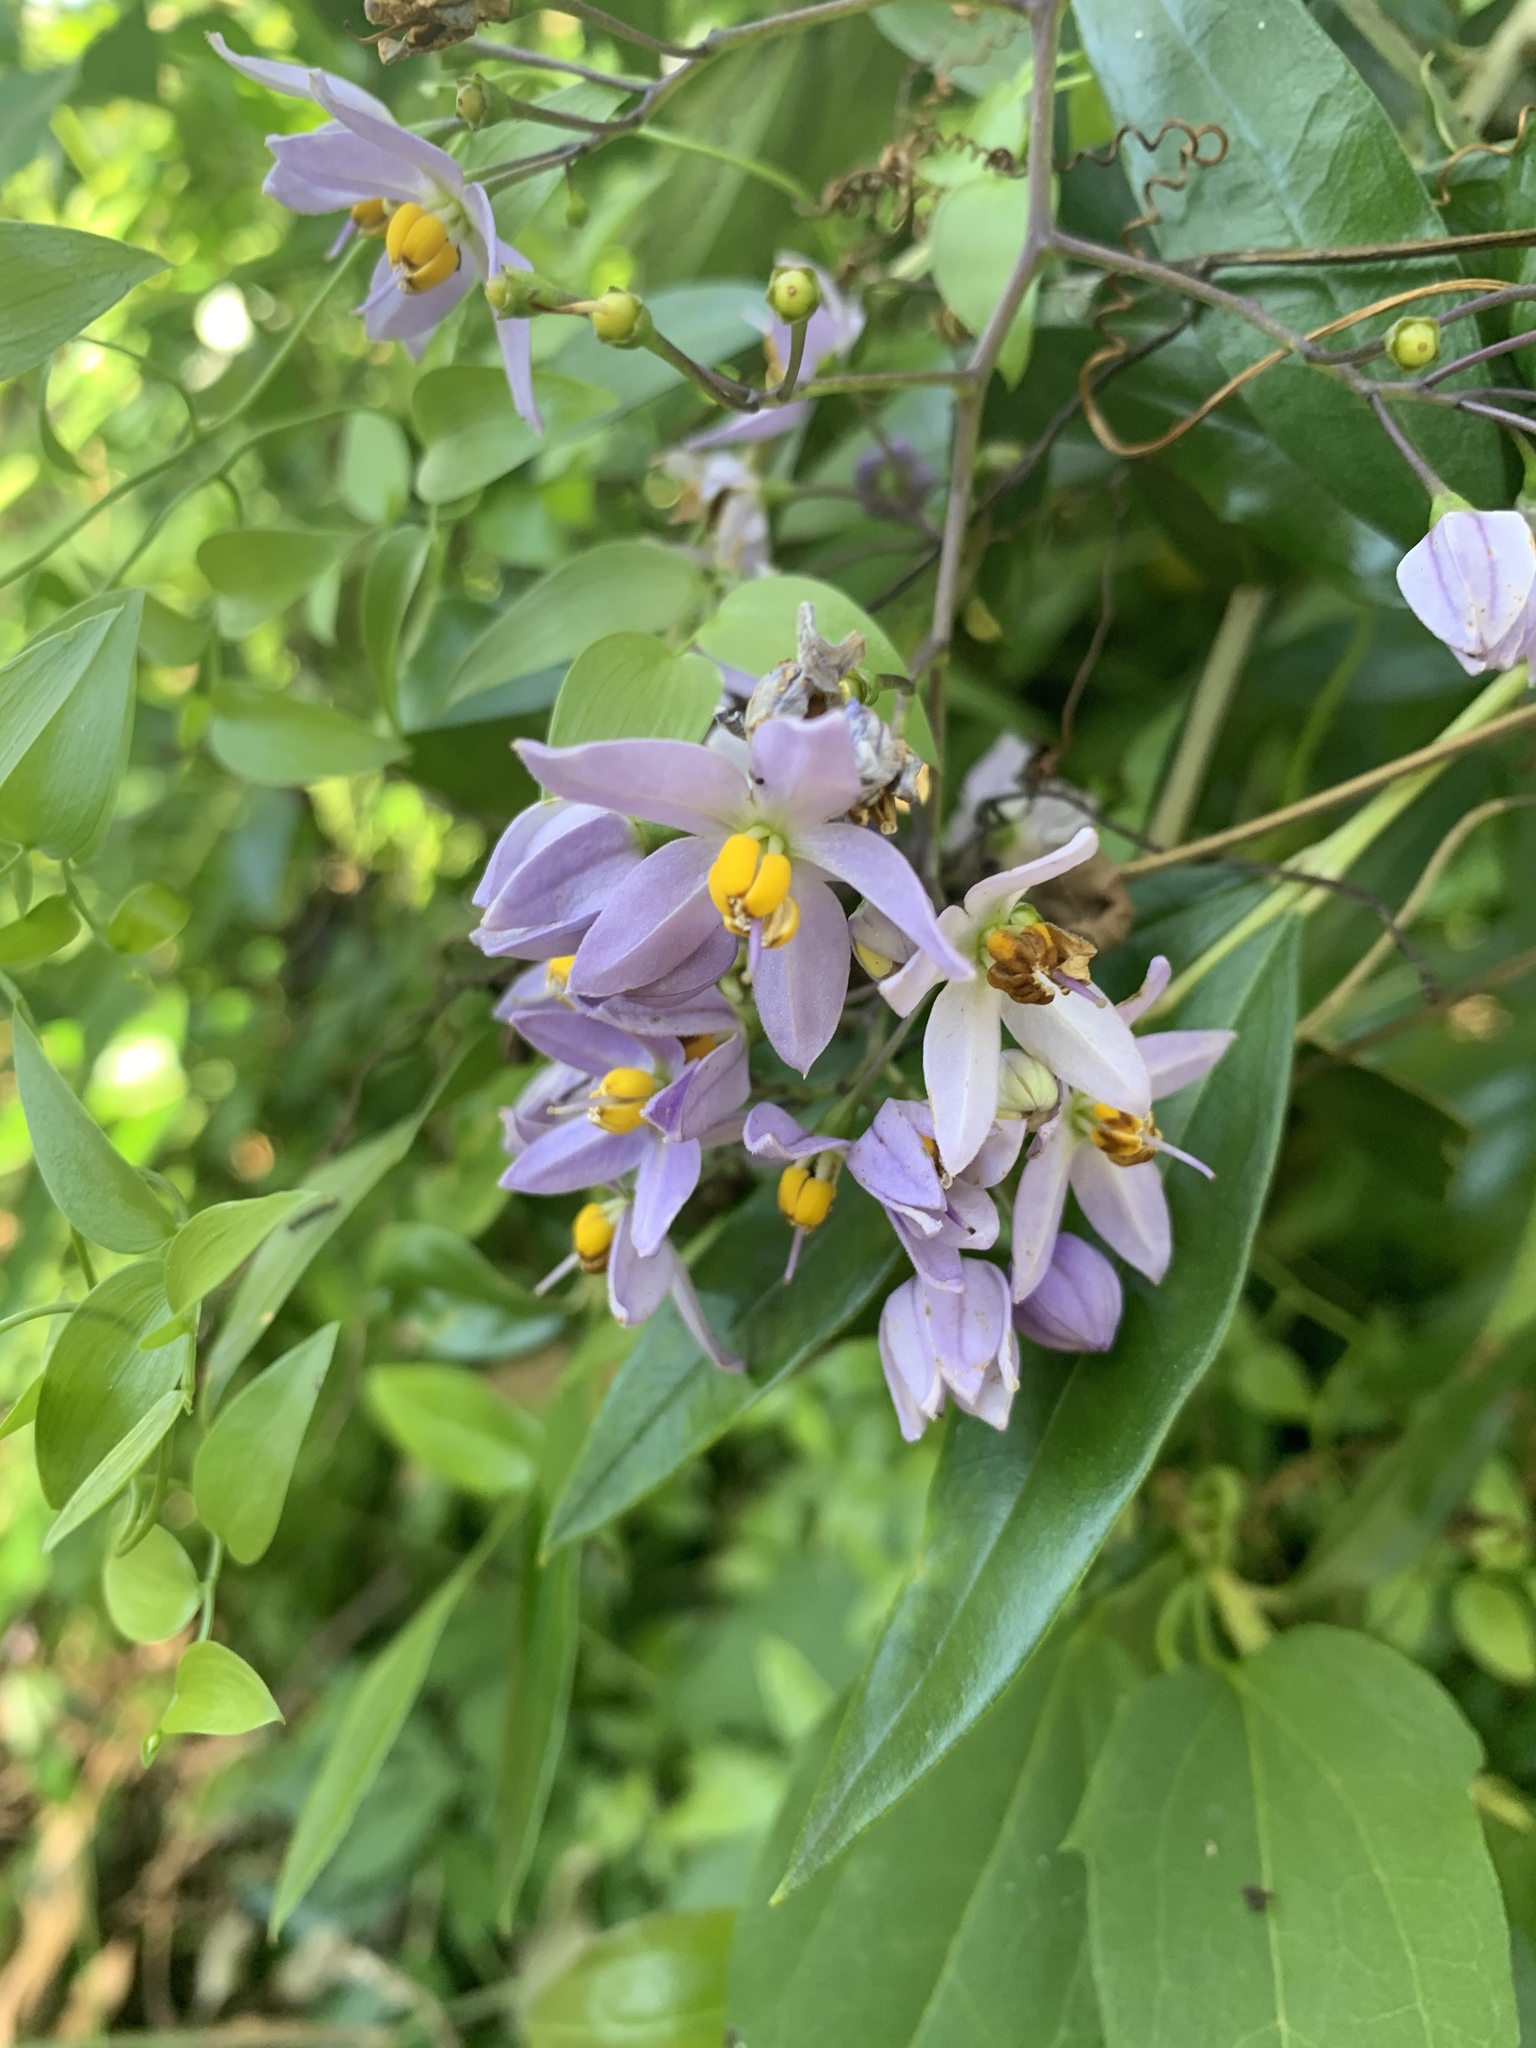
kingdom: Plantae
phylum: Tracheophyta
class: Magnoliopsida
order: Solanales
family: Solanaceae
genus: Solanum
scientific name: Solanum seaforthianum
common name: Brazilian nightshade
